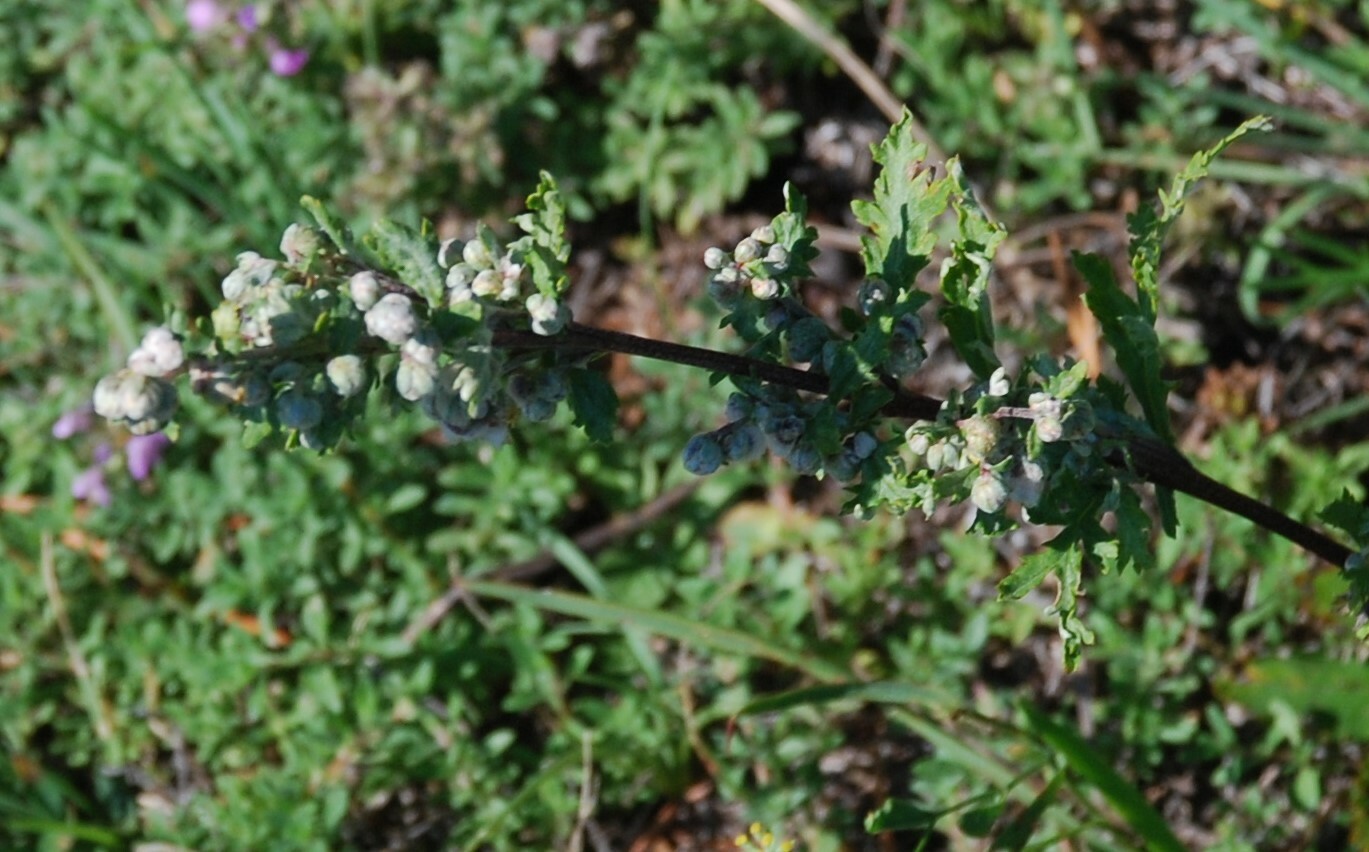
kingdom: Plantae
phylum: Tracheophyta
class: Magnoliopsida
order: Asterales
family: Asteraceae
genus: Artemisia
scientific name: Artemisia gmelinii
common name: Gmelin's wormwood
